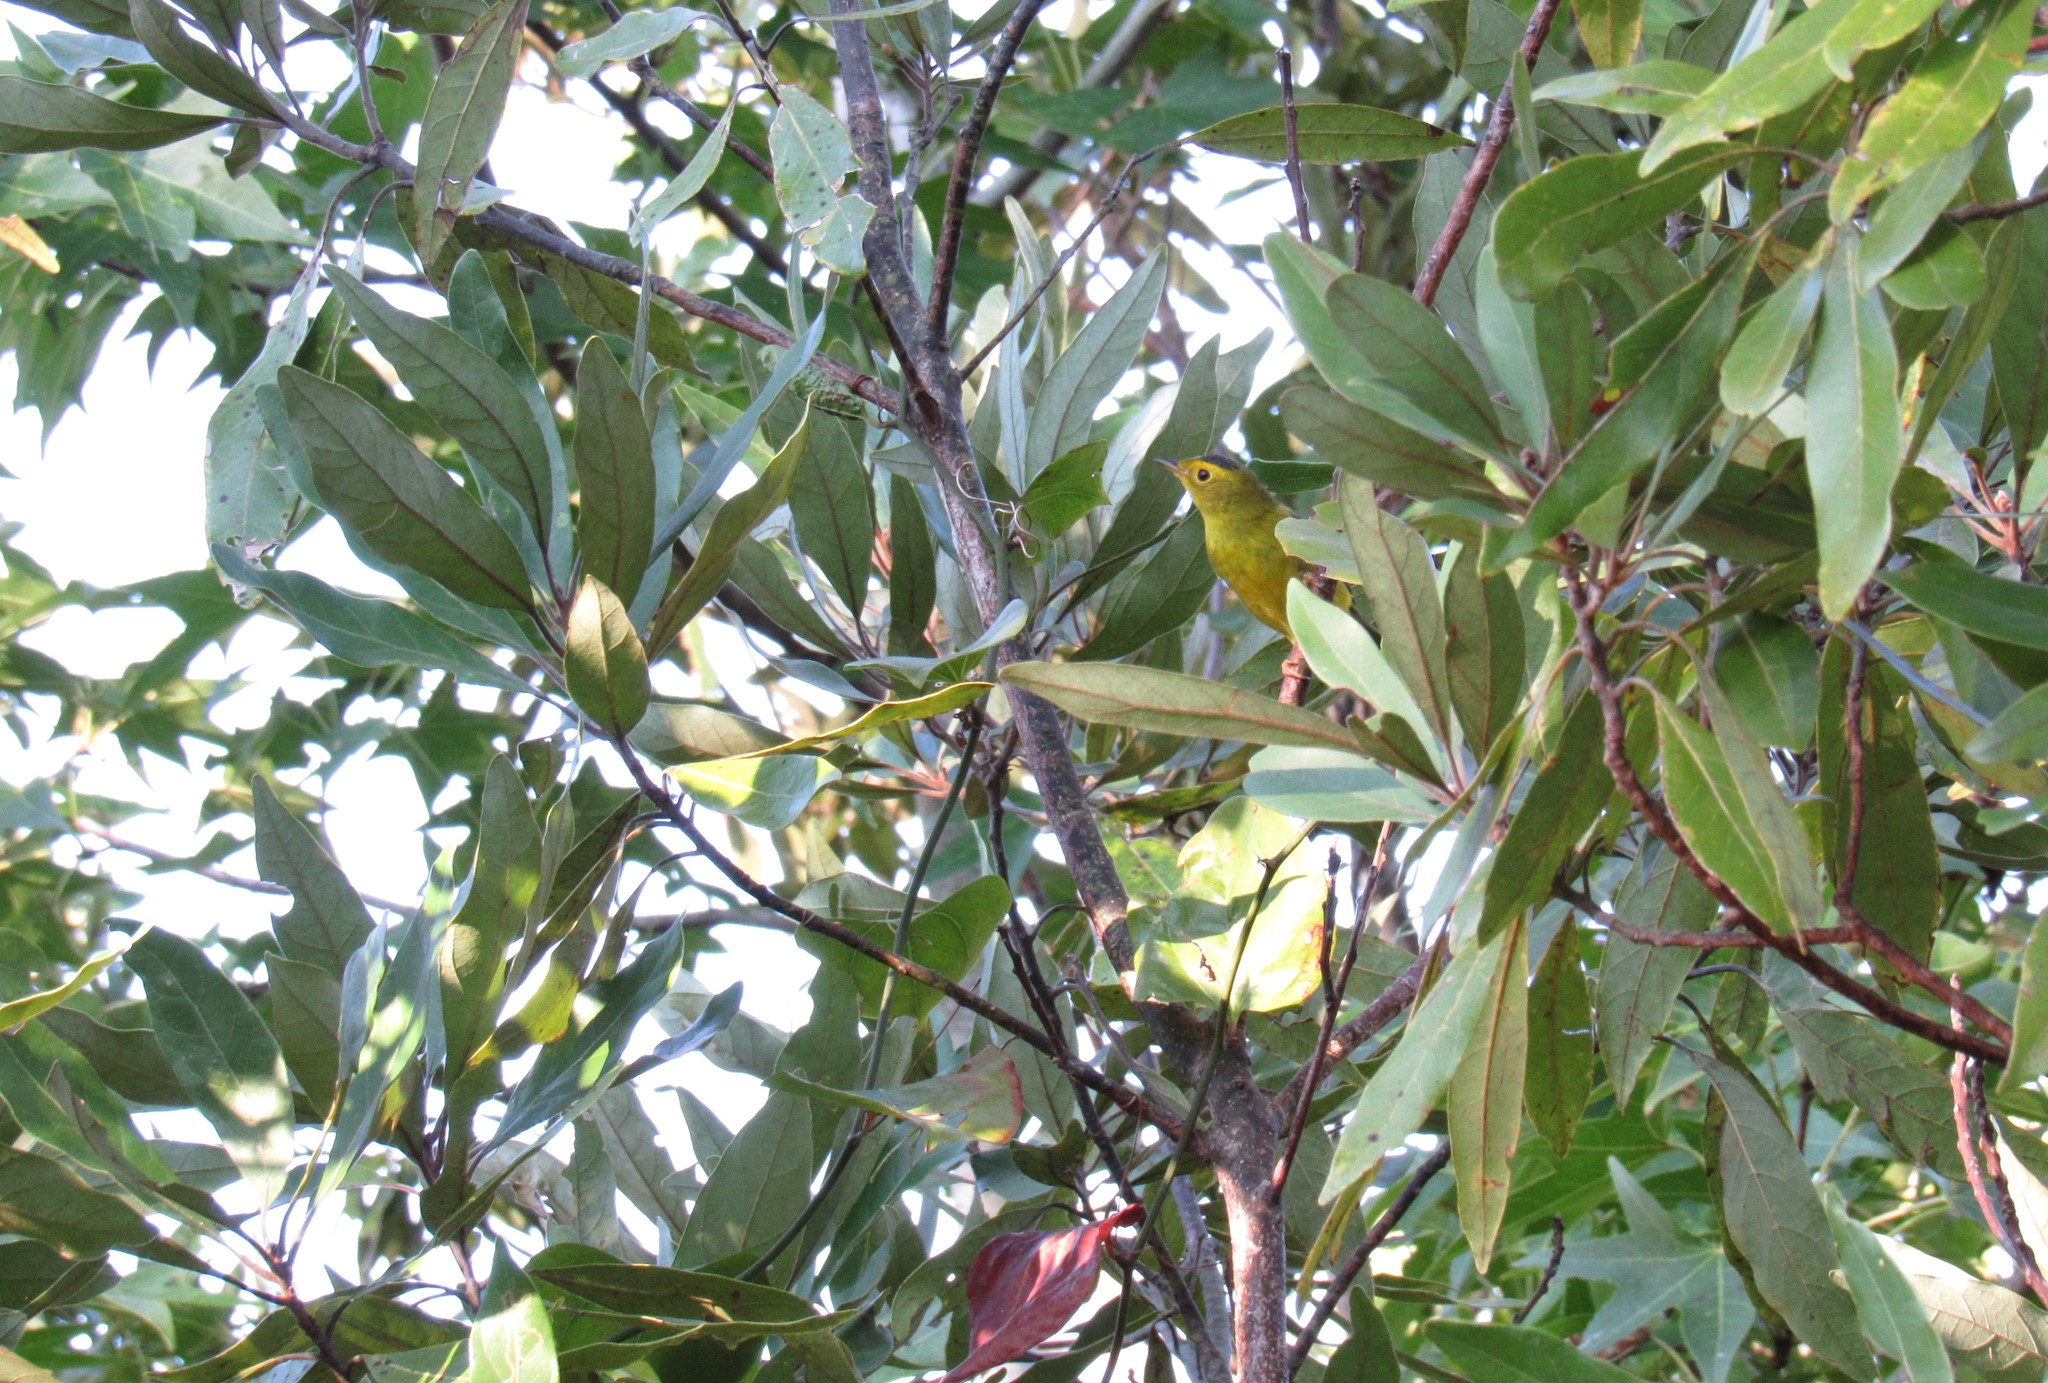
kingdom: Animalia
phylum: Chordata
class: Aves
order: Passeriformes
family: Parulidae
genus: Cardellina
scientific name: Cardellina pusilla
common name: Wilson's warbler
